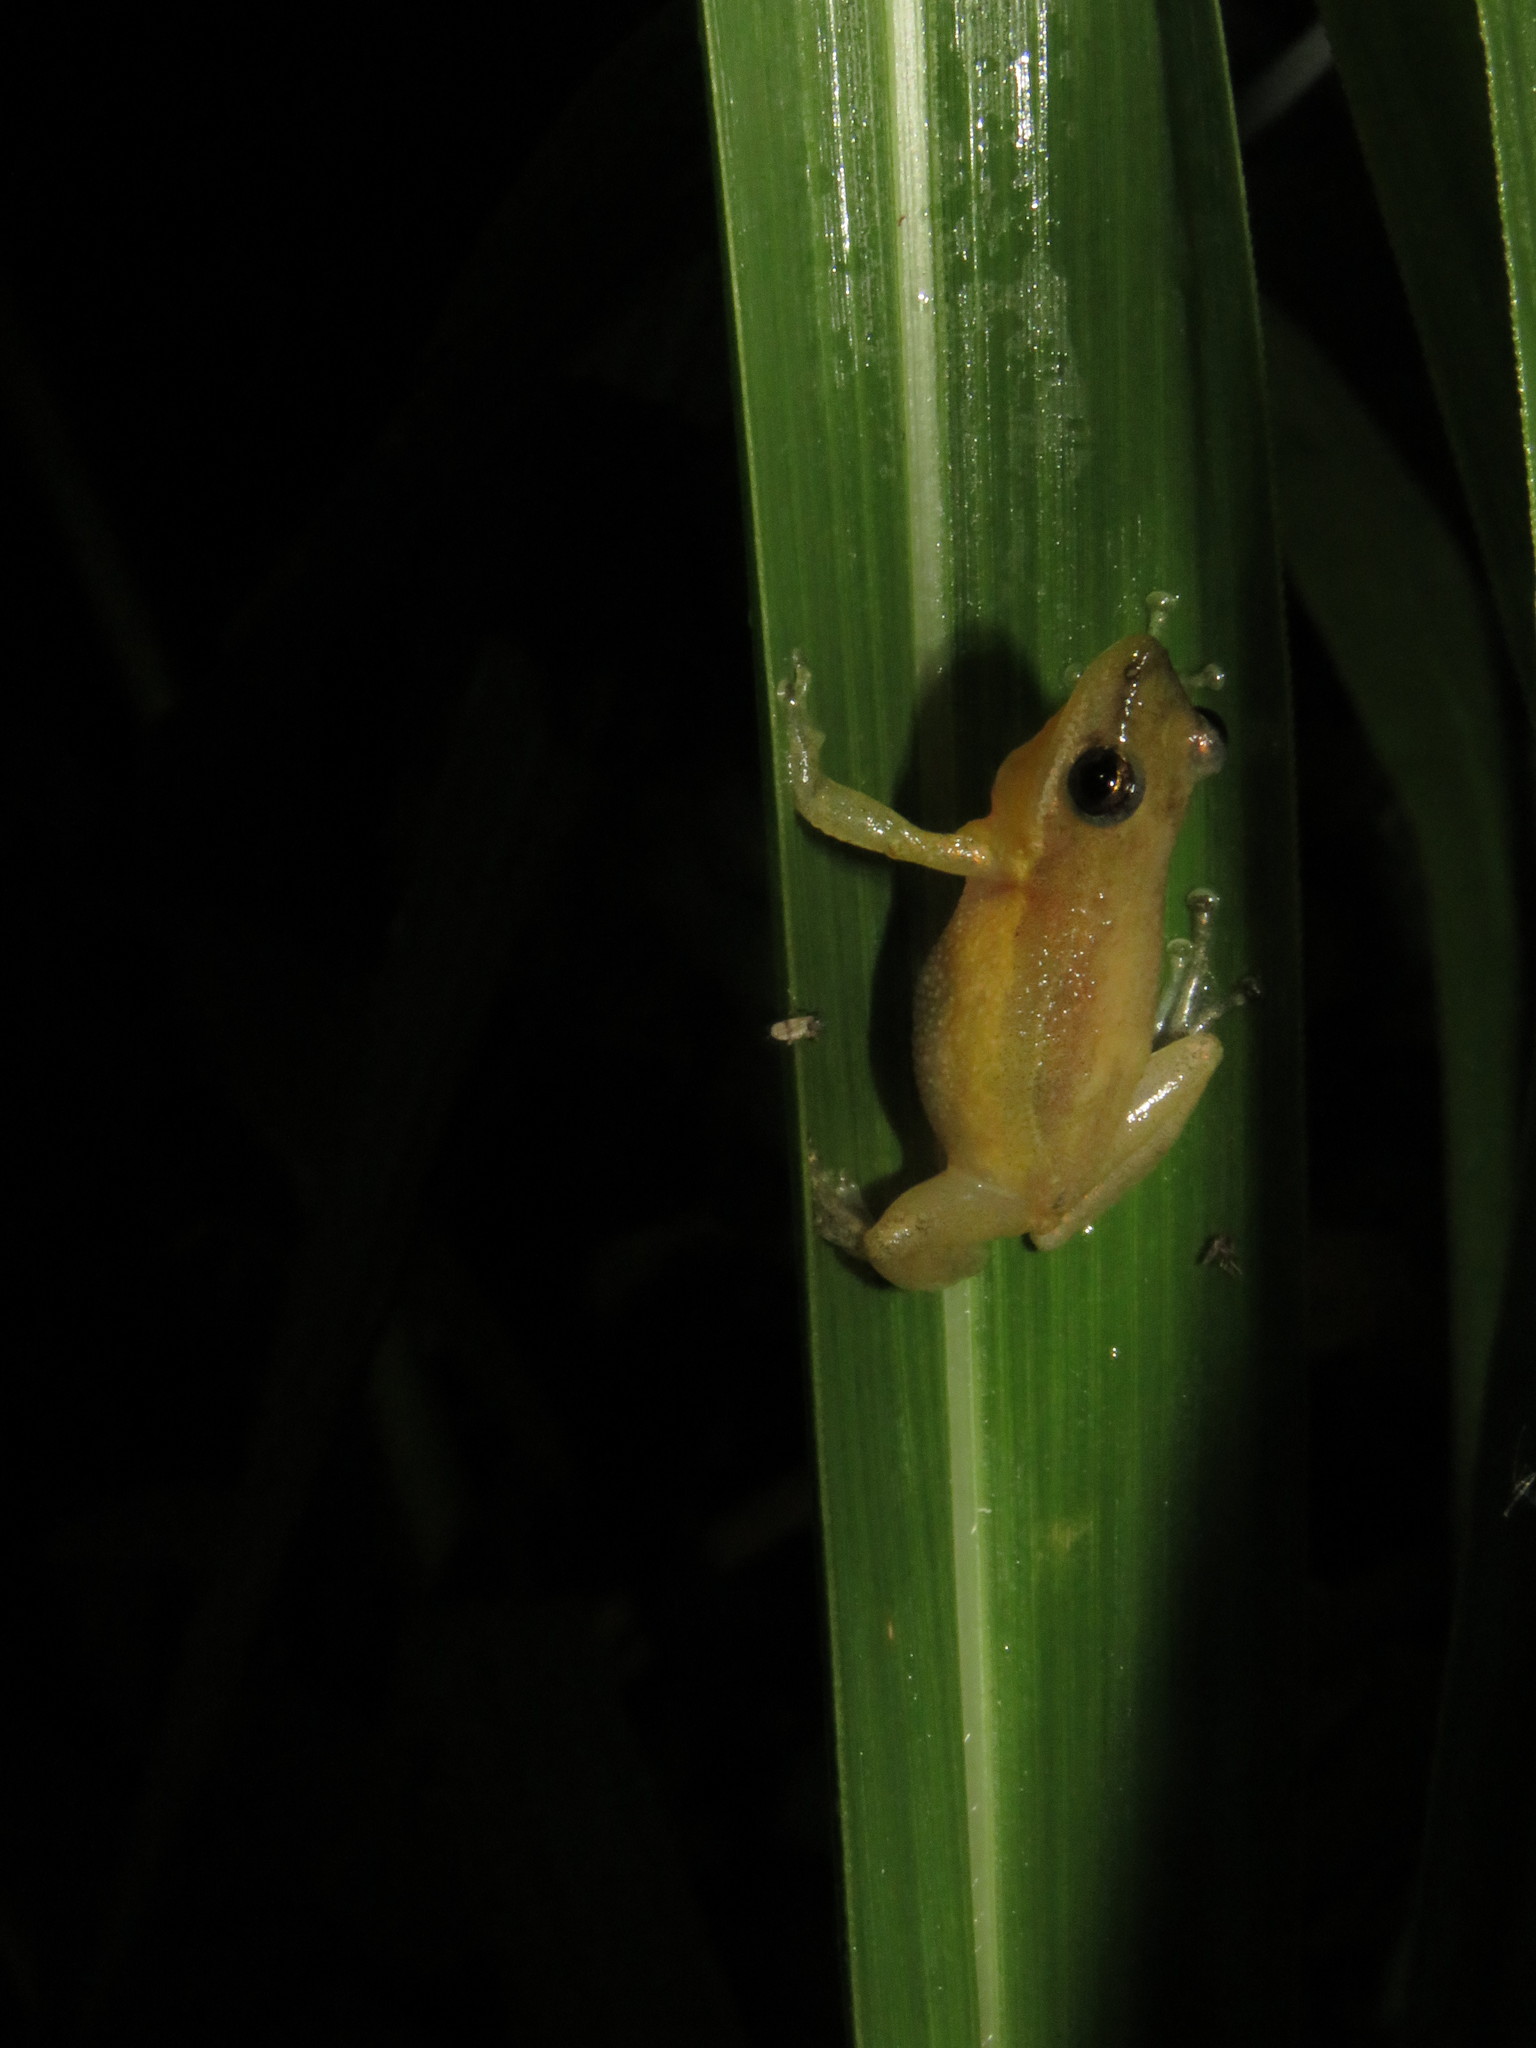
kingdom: Animalia
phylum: Chordata
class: Amphibia
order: Anura
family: Hylidae
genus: Scinax
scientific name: Scinax fuscomarginatus
